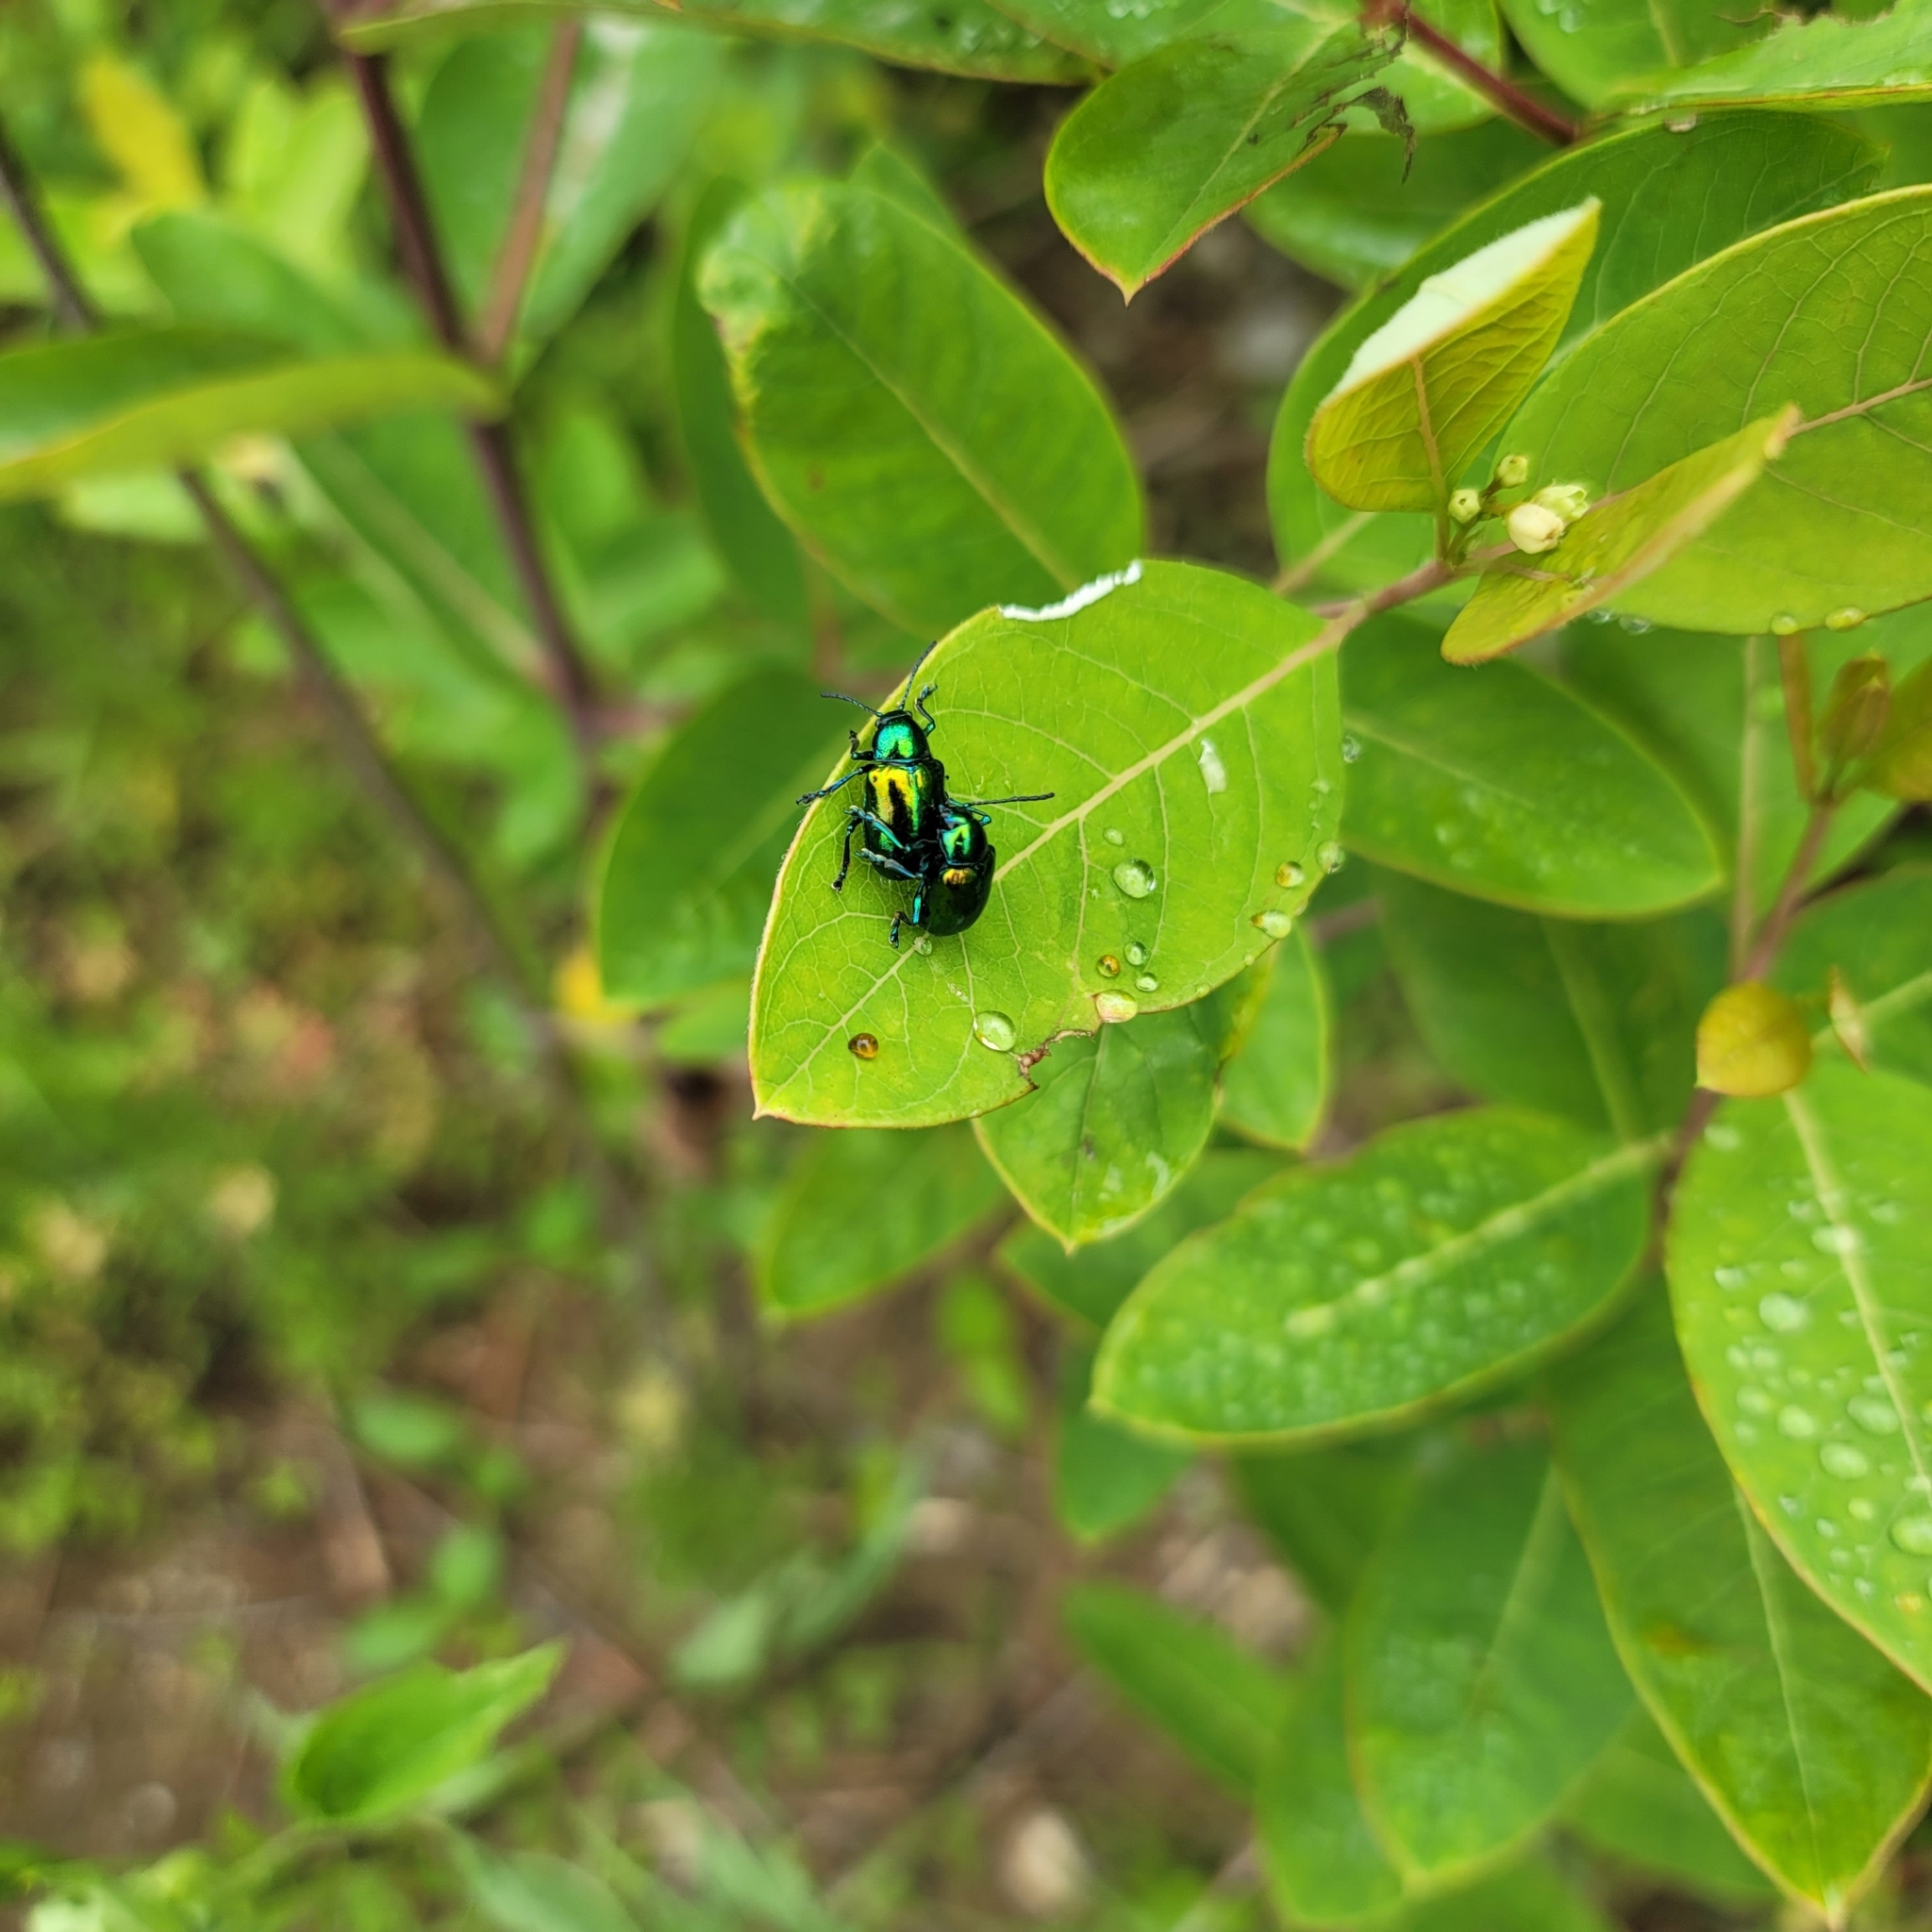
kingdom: Animalia
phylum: Arthropoda
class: Insecta
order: Coleoptera
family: Chrysomelidae
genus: Chrysochus
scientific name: Chrysochus auratus
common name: Dogbane leaf beetle
